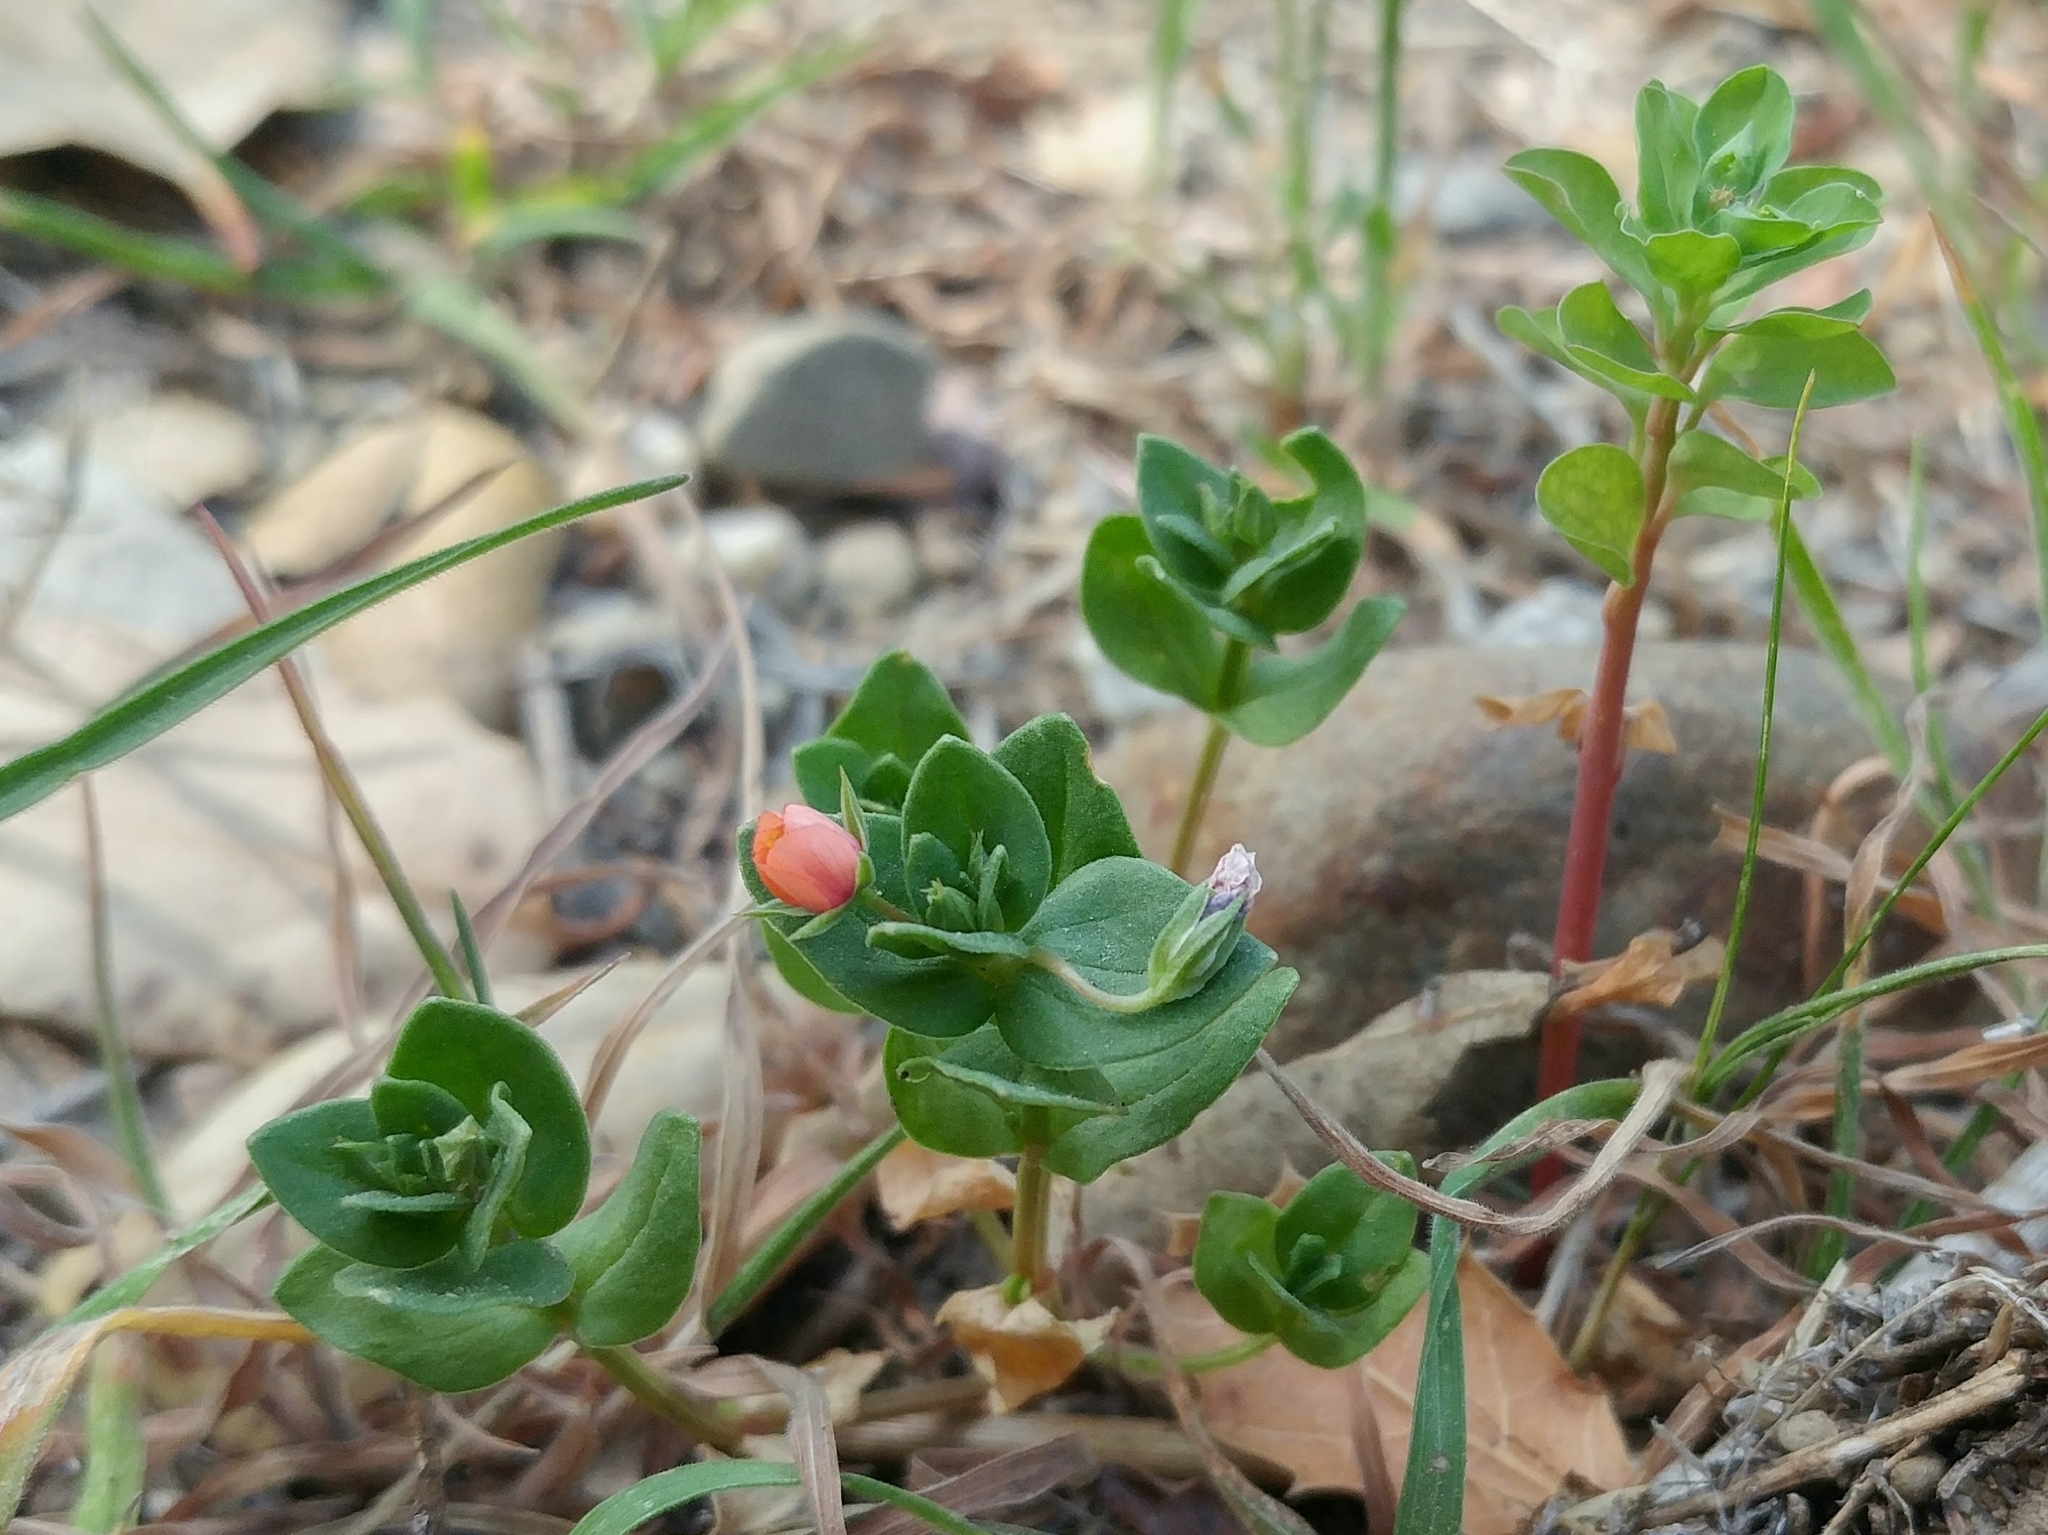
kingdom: Plantae
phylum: Tracheophyta
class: Magnoliopsida
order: Ericales
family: Primulaceae
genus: Lysimachia
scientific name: Lysimachia arvensis
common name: Scarlet pimpernel
